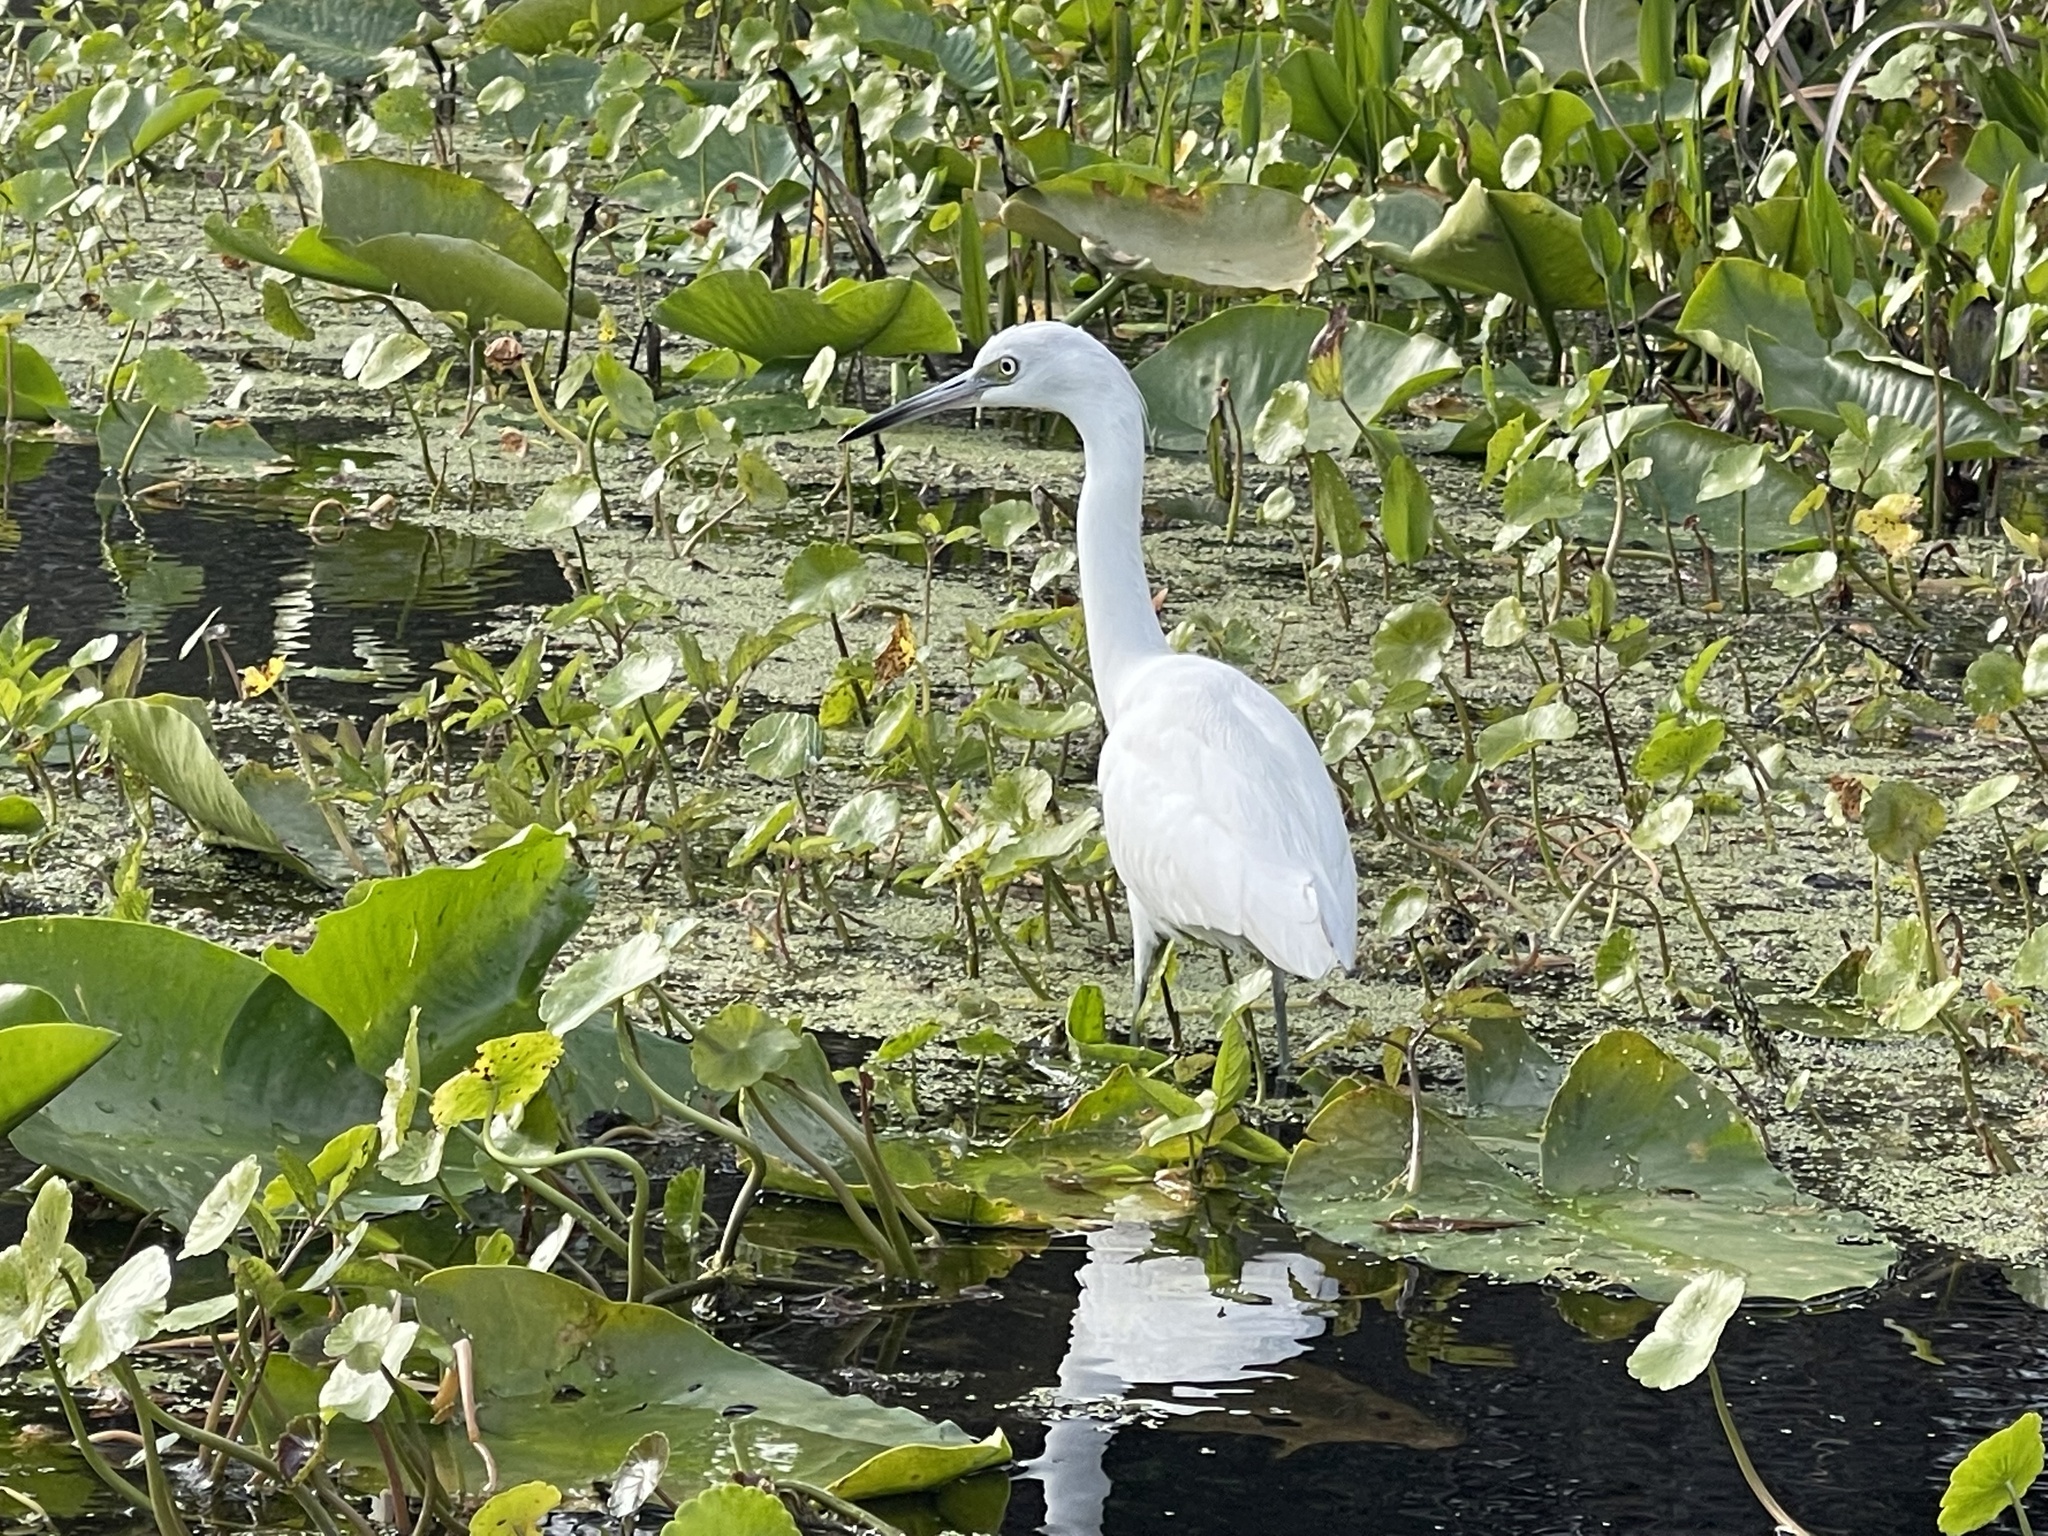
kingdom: Animalia
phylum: Chordata
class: Aves
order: Pelecaniformes
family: Ardeidae
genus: Egretta
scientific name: Egretta caerulea
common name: Little blue heron
